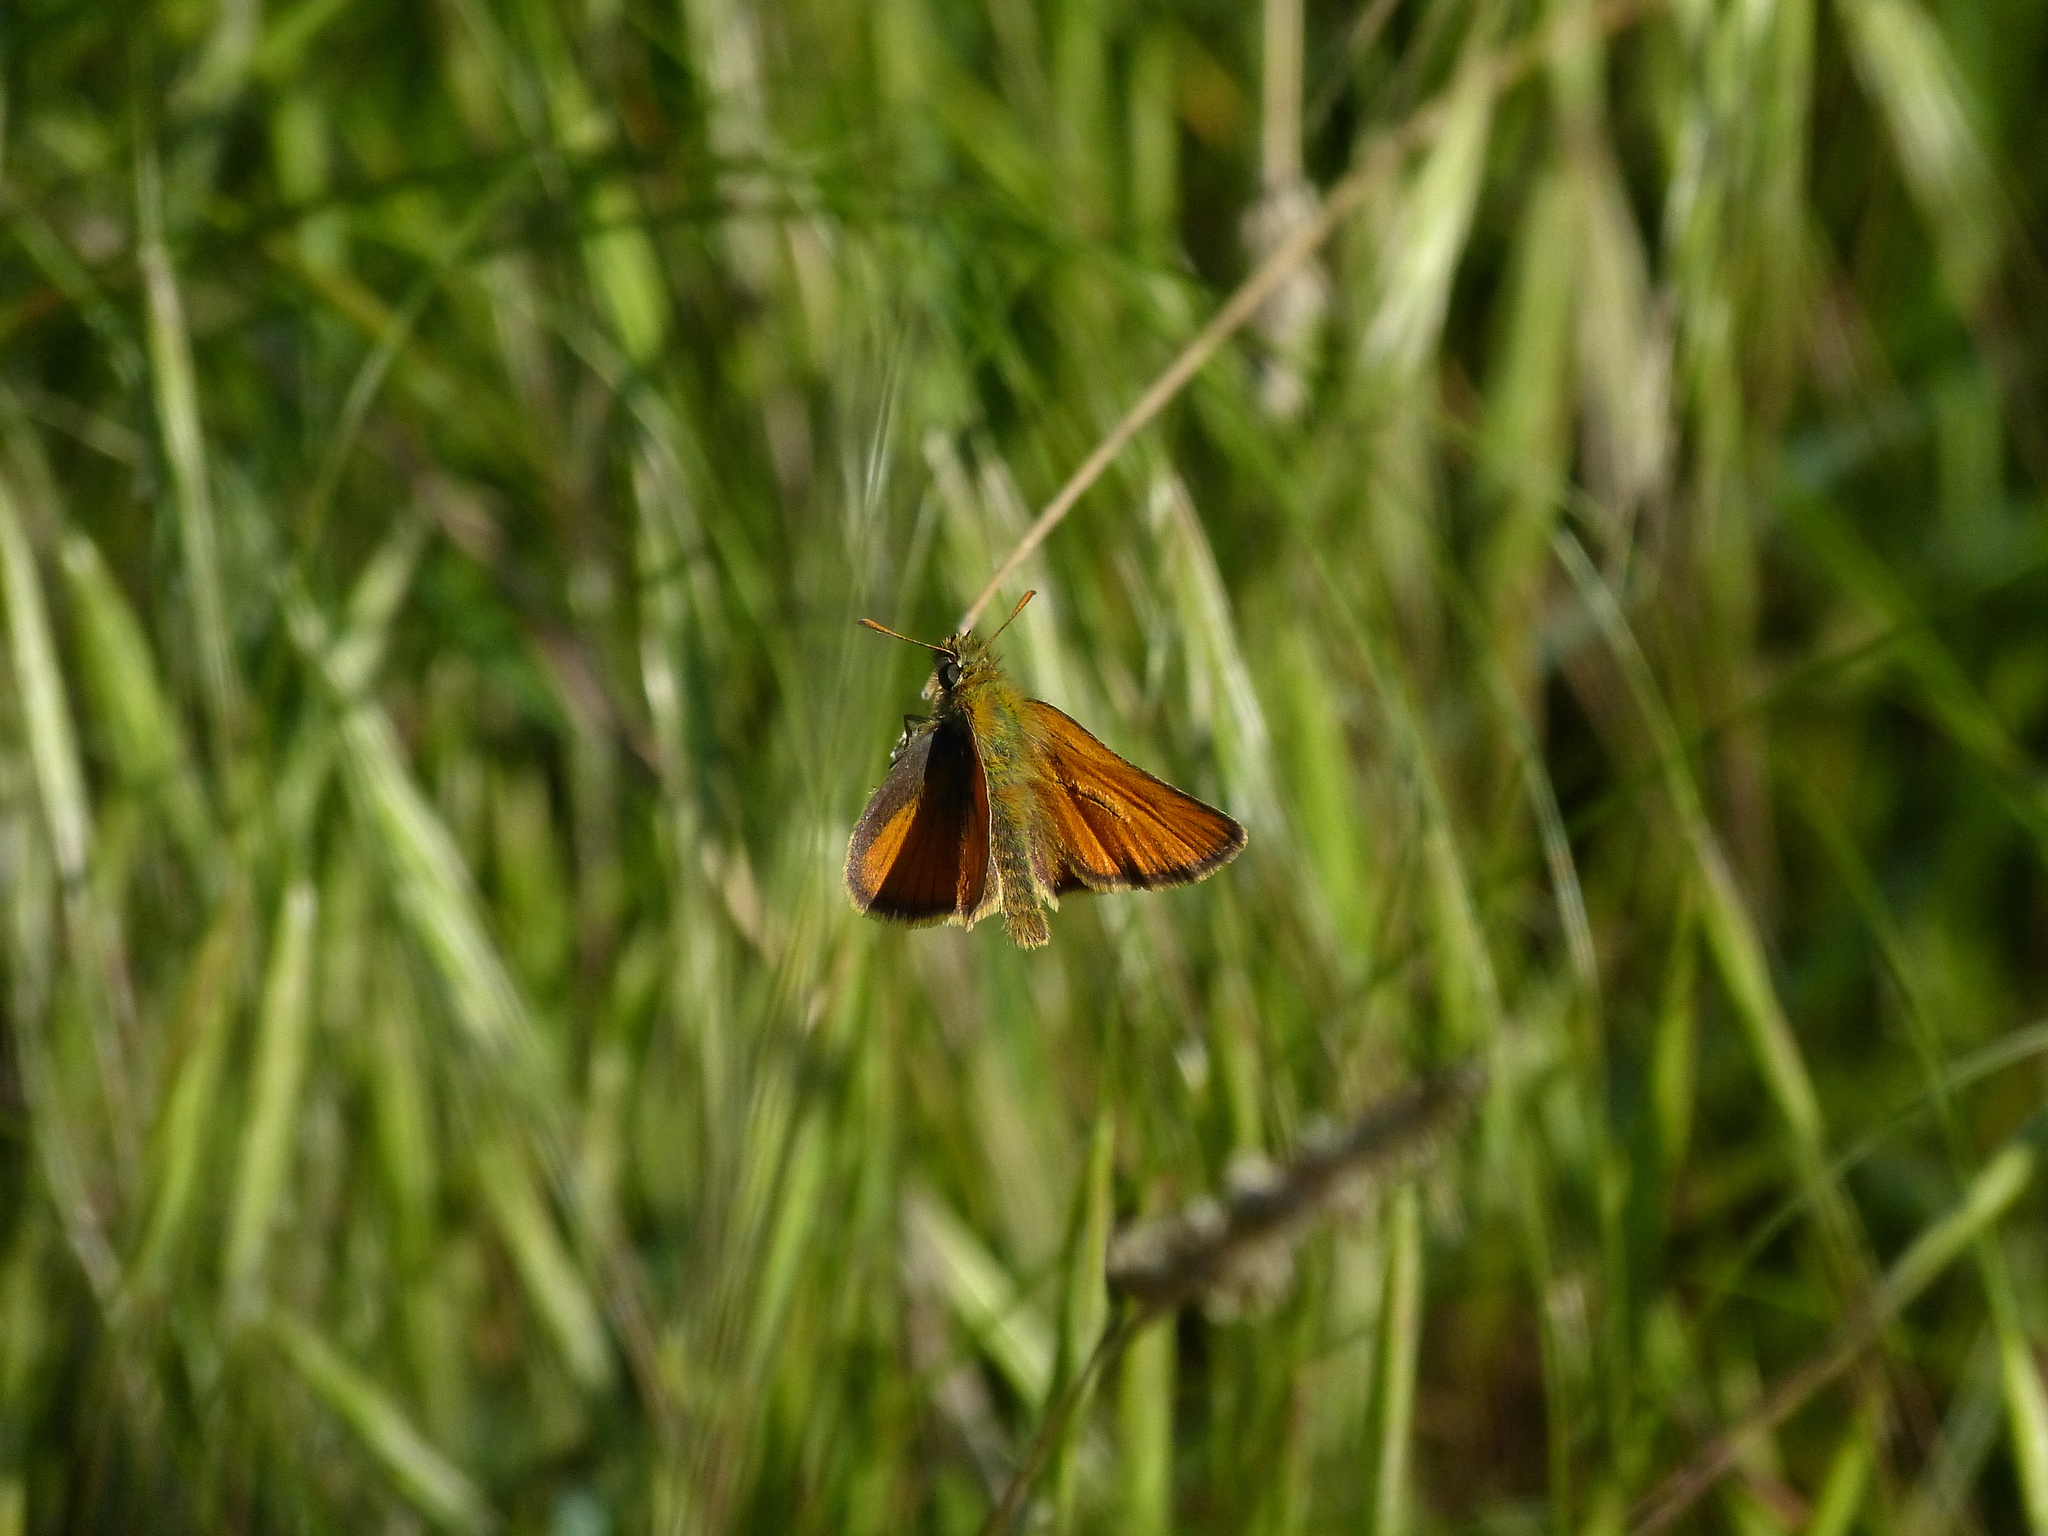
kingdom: Animalia
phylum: Arthropoda
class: Insecta
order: Lepidoptera
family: Hesperiidae
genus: Thymelicus
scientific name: Thymelicus sylvestris
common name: Small skipper
